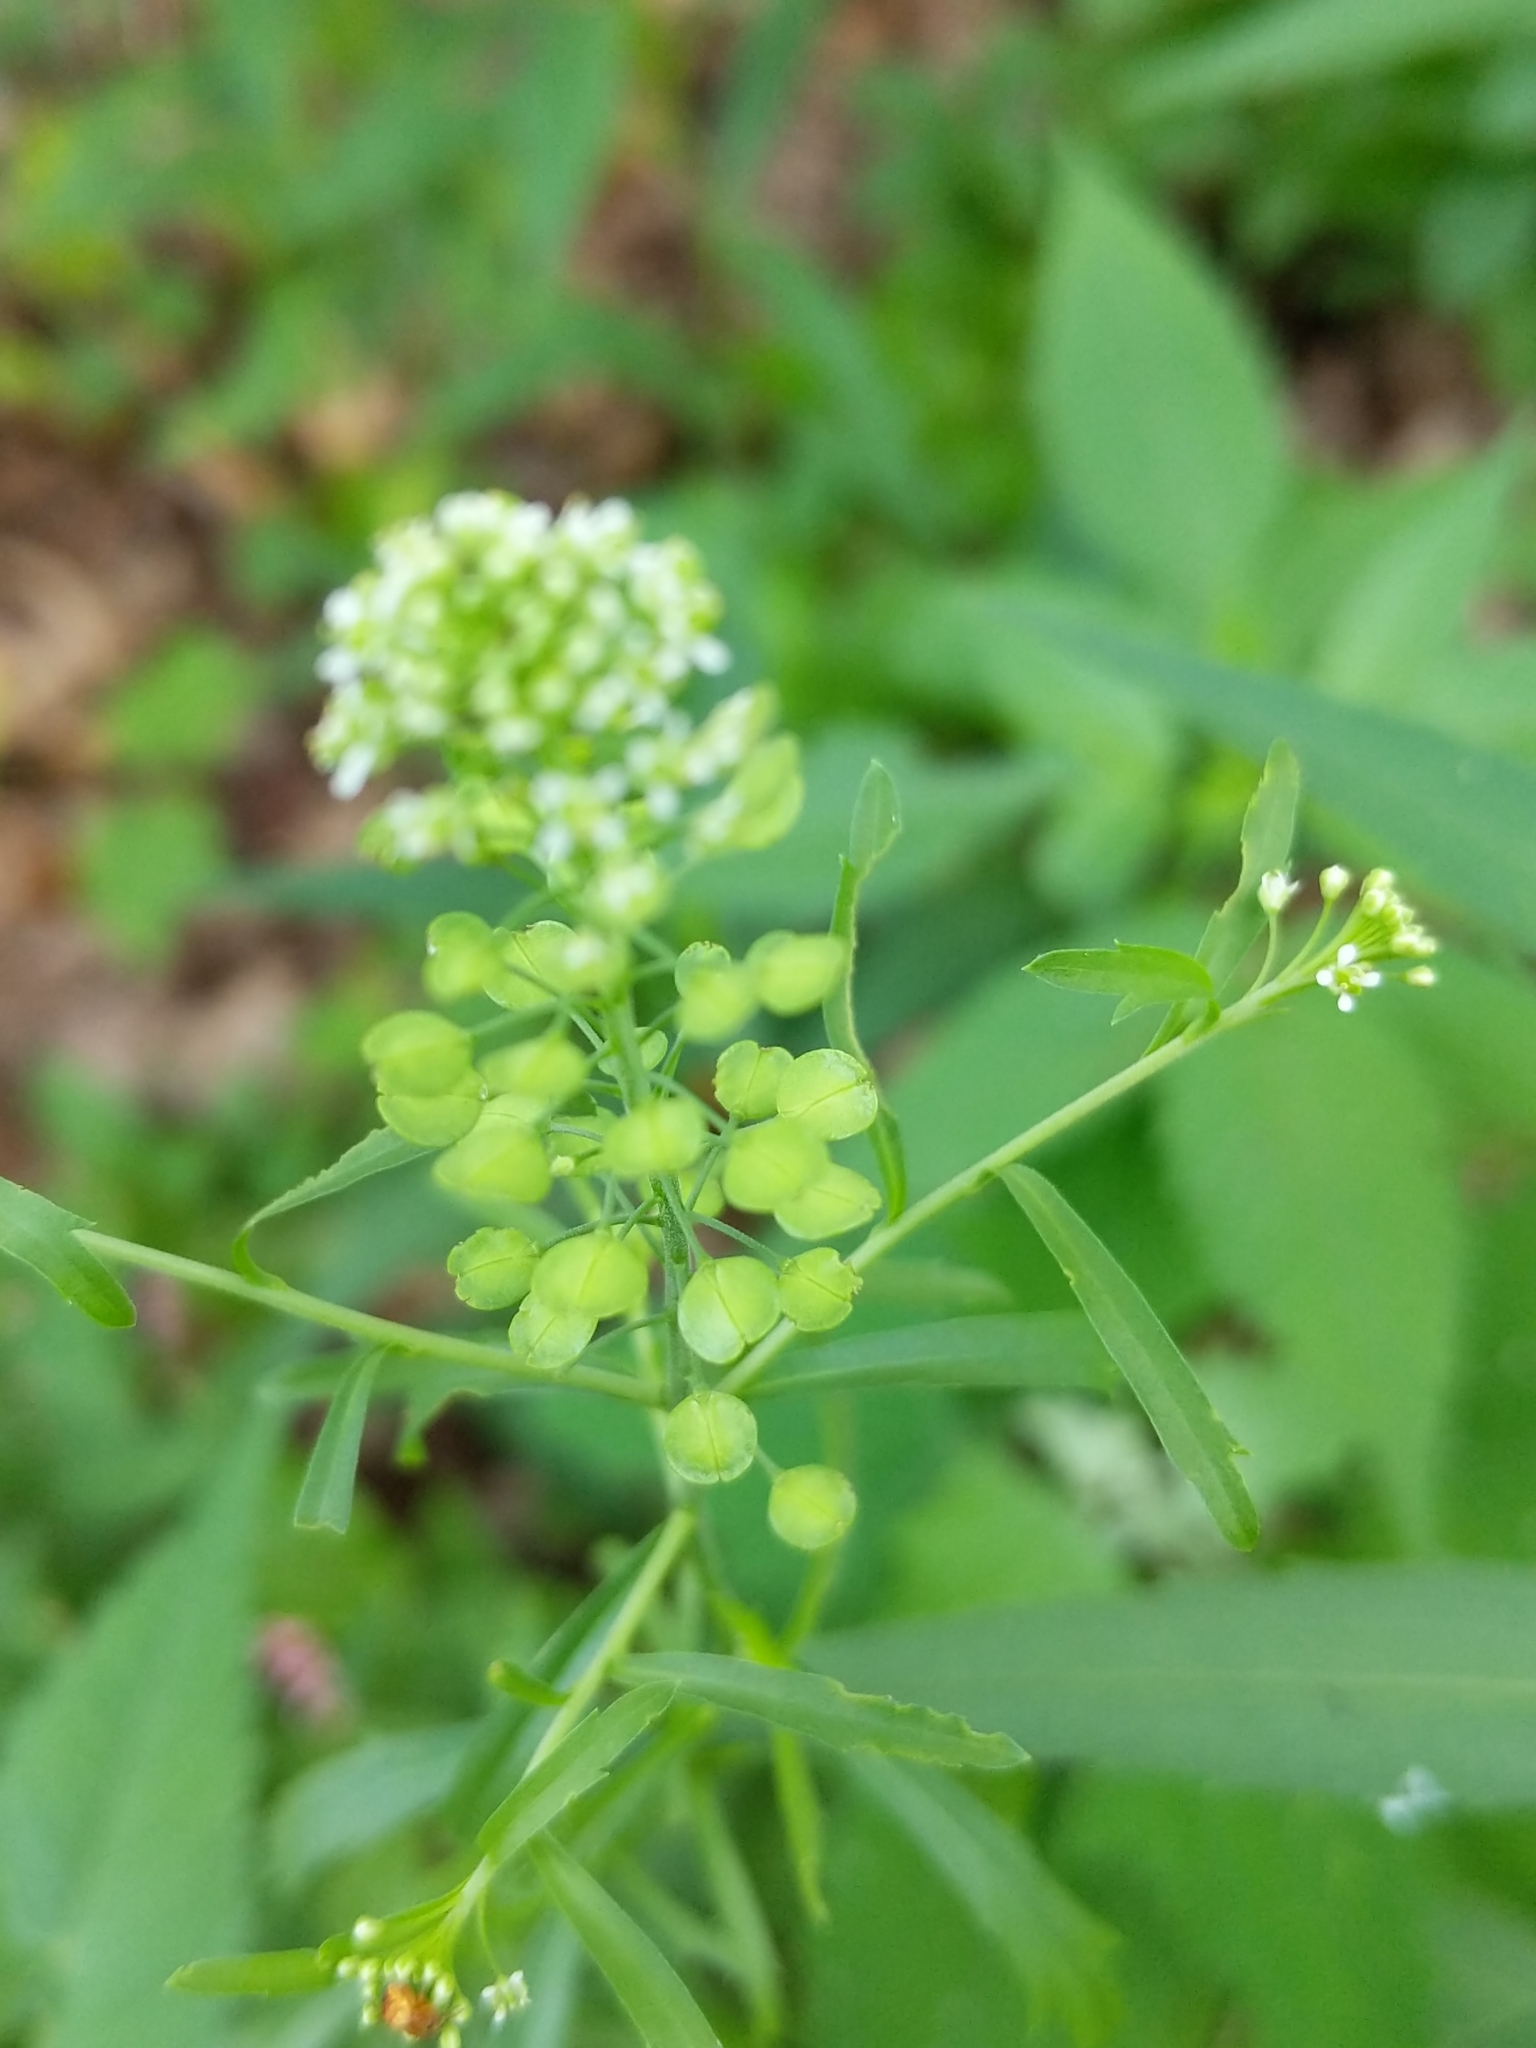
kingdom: Plantae
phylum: Tracheophyta
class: Magnoliopsida
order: Brassicales
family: Brassicaceae
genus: Lepidium
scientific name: Lepidium virginicum
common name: Least pepperwort
